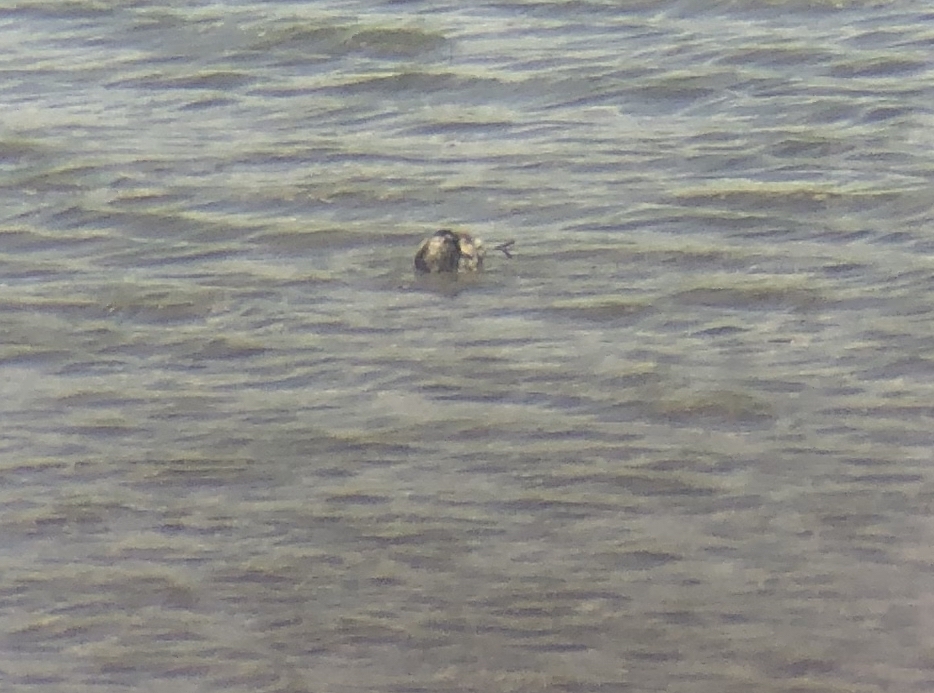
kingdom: Animalia
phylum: Chordata
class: Aves
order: Charadriiformes
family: Scolopacidae
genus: Phalaropus
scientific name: Phalaropus fulicarius
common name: Red phalarope
